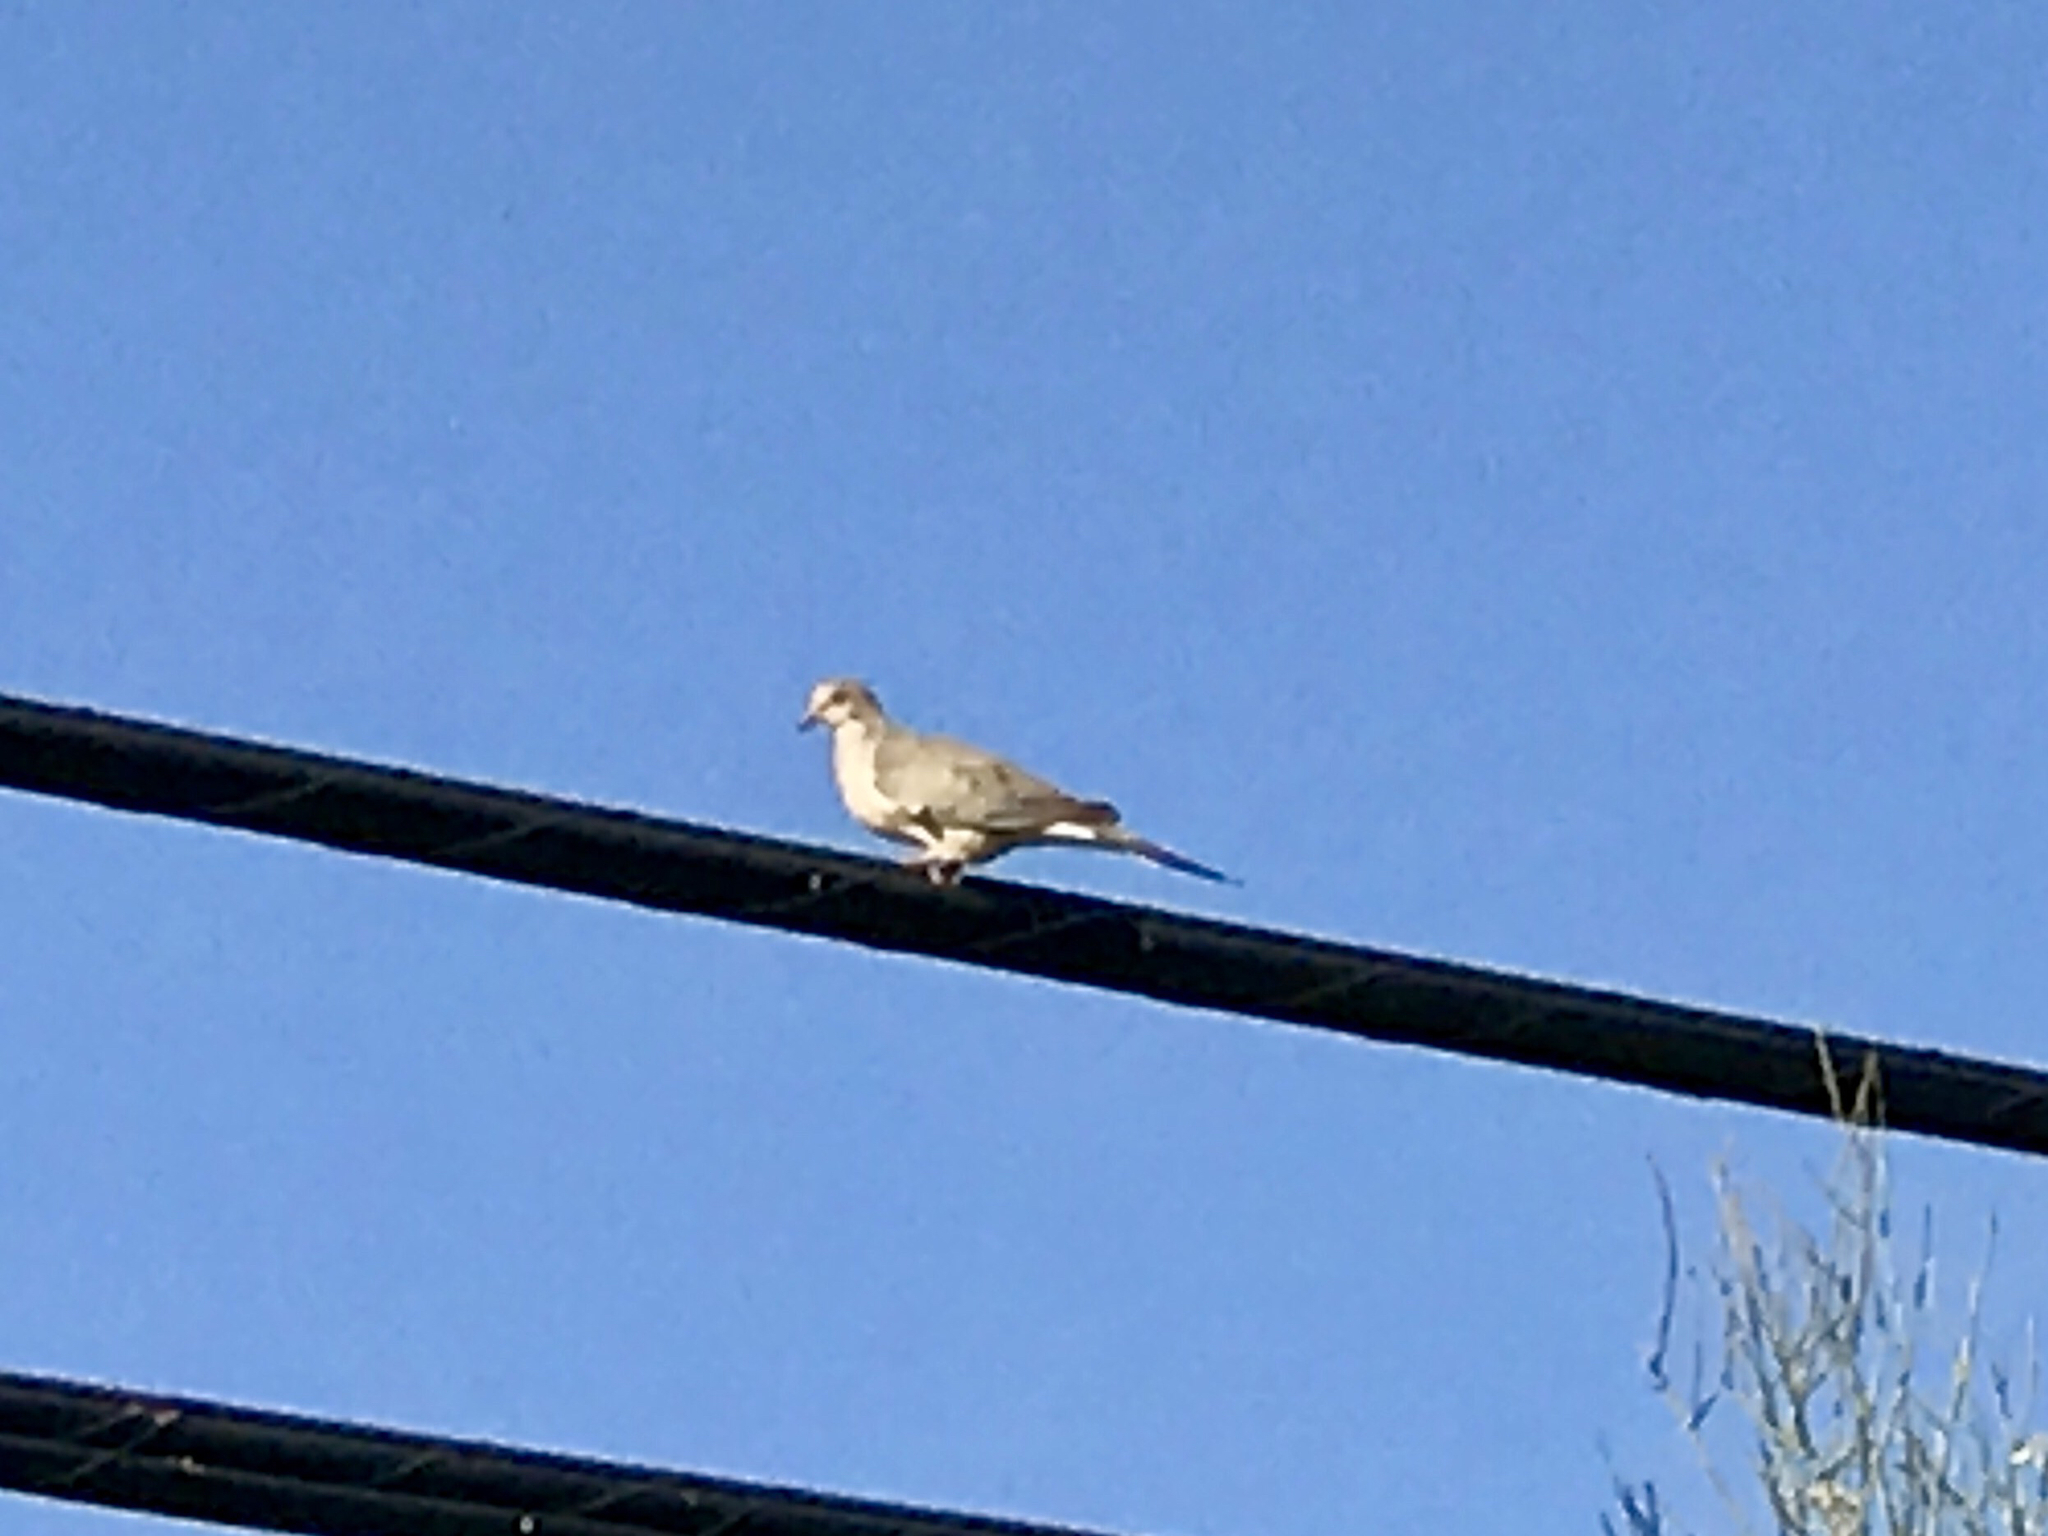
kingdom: Animalia
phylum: Chordata
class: Aves
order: Columbiformes
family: Columbidae
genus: Zenaida
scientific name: Zenaida macroura
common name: Mourning dove
